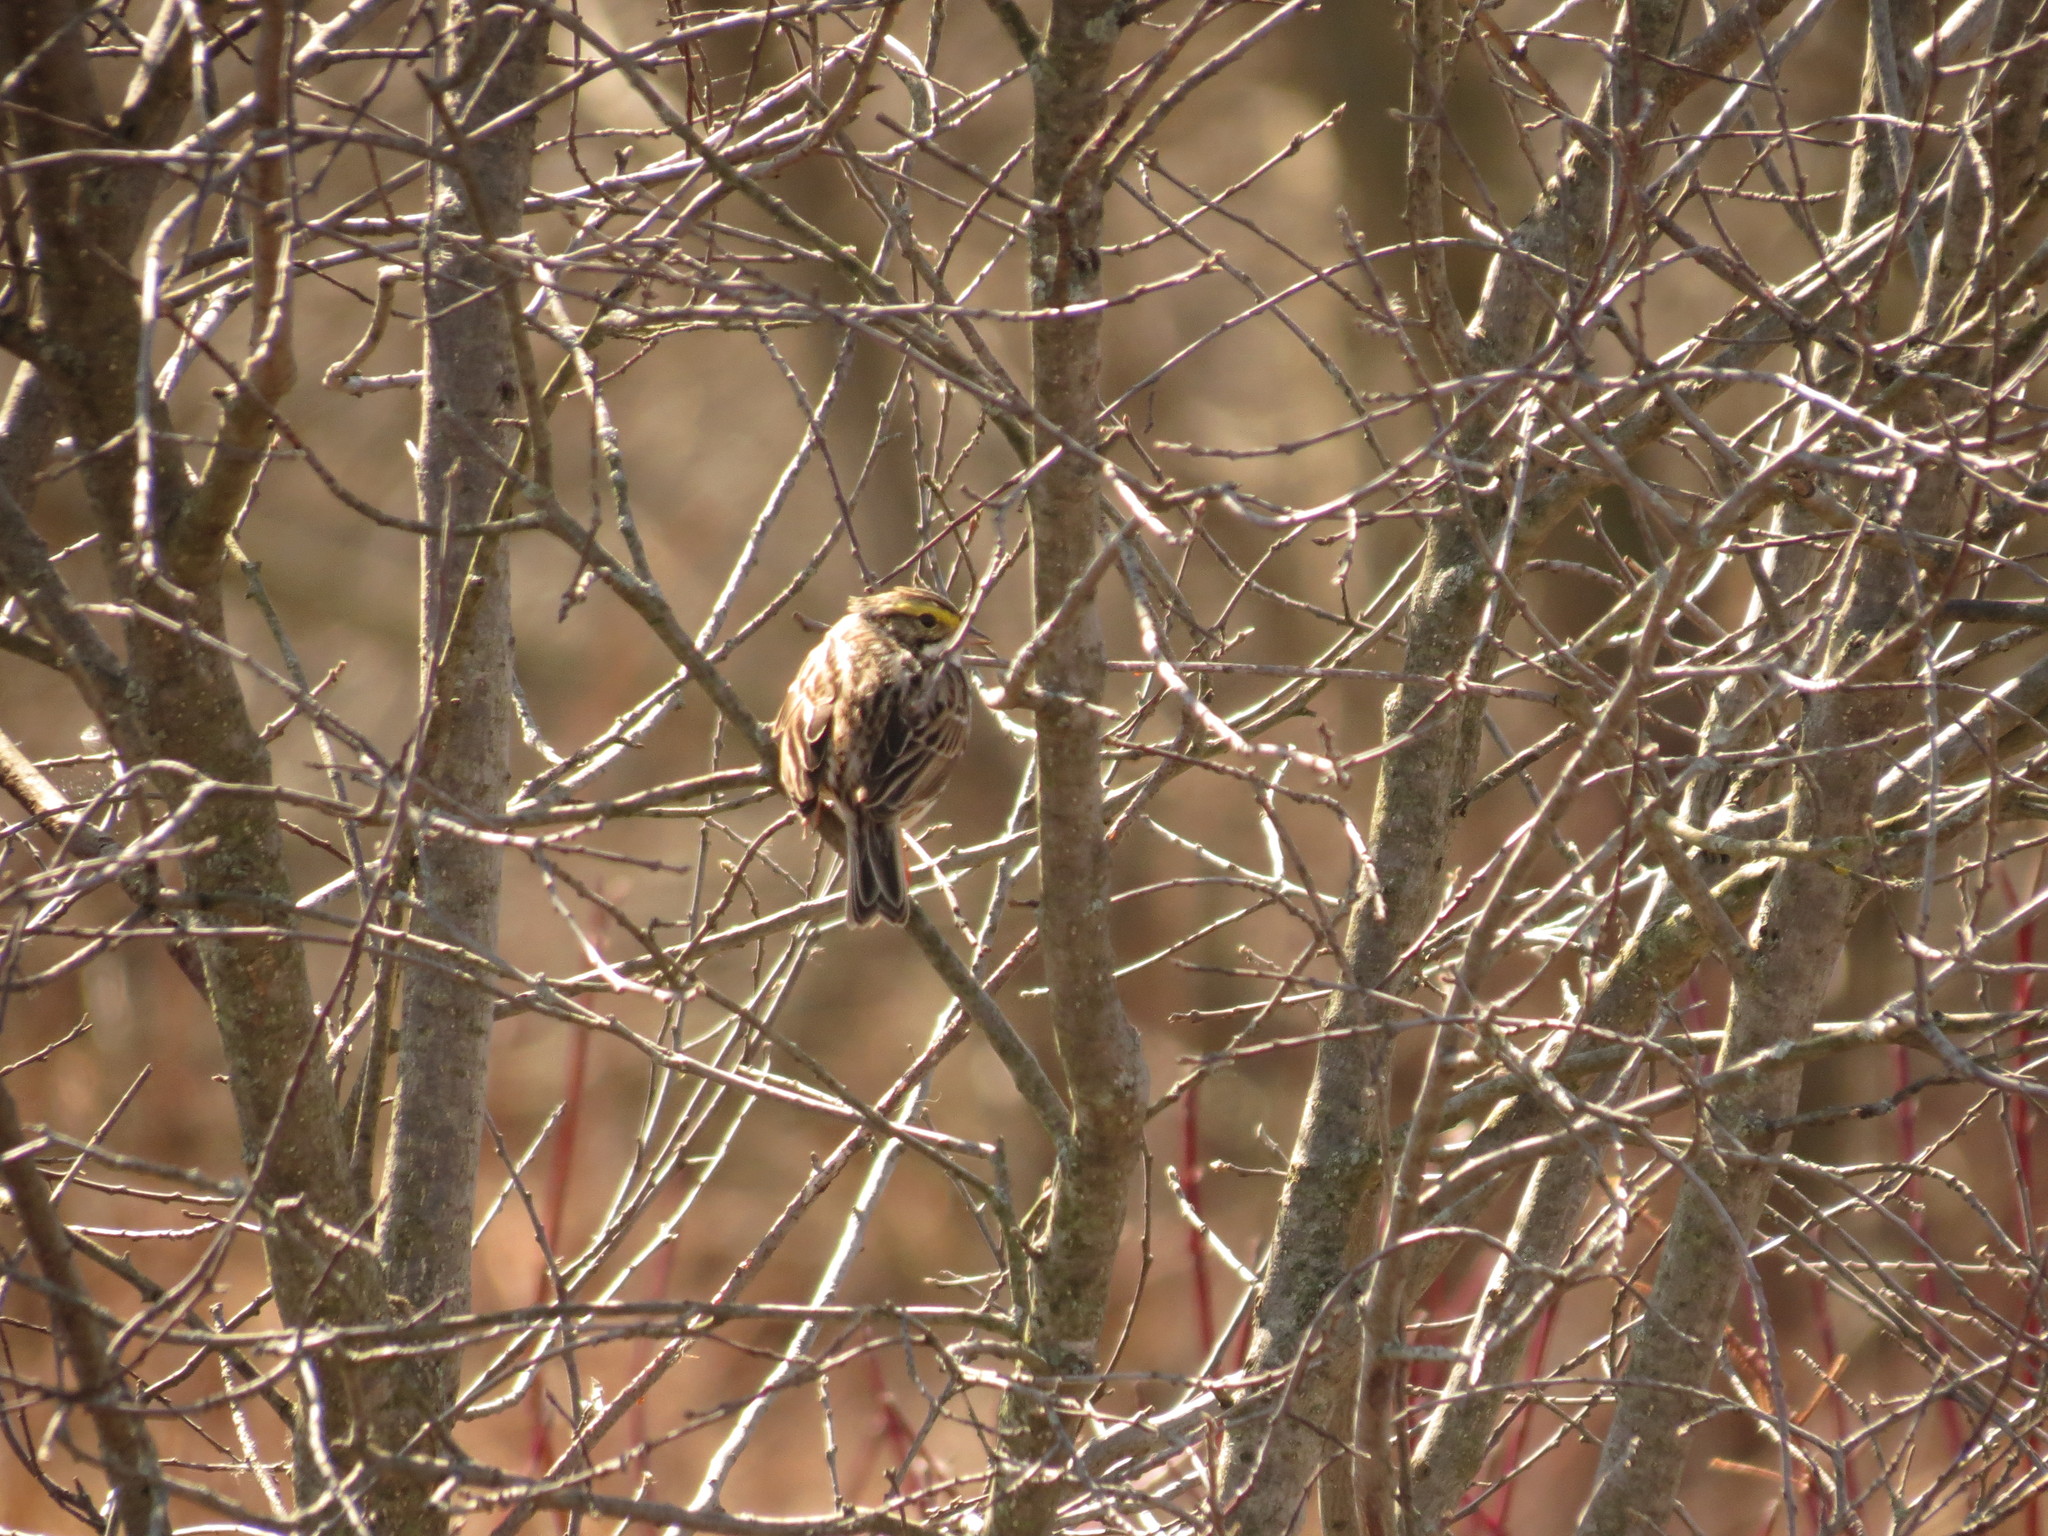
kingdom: Animalia
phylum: Chordata
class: Aves
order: Passeriformes
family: Passerellidae
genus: Passerculus
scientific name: Passerculus sandwichensis
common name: Savannah sparrow
